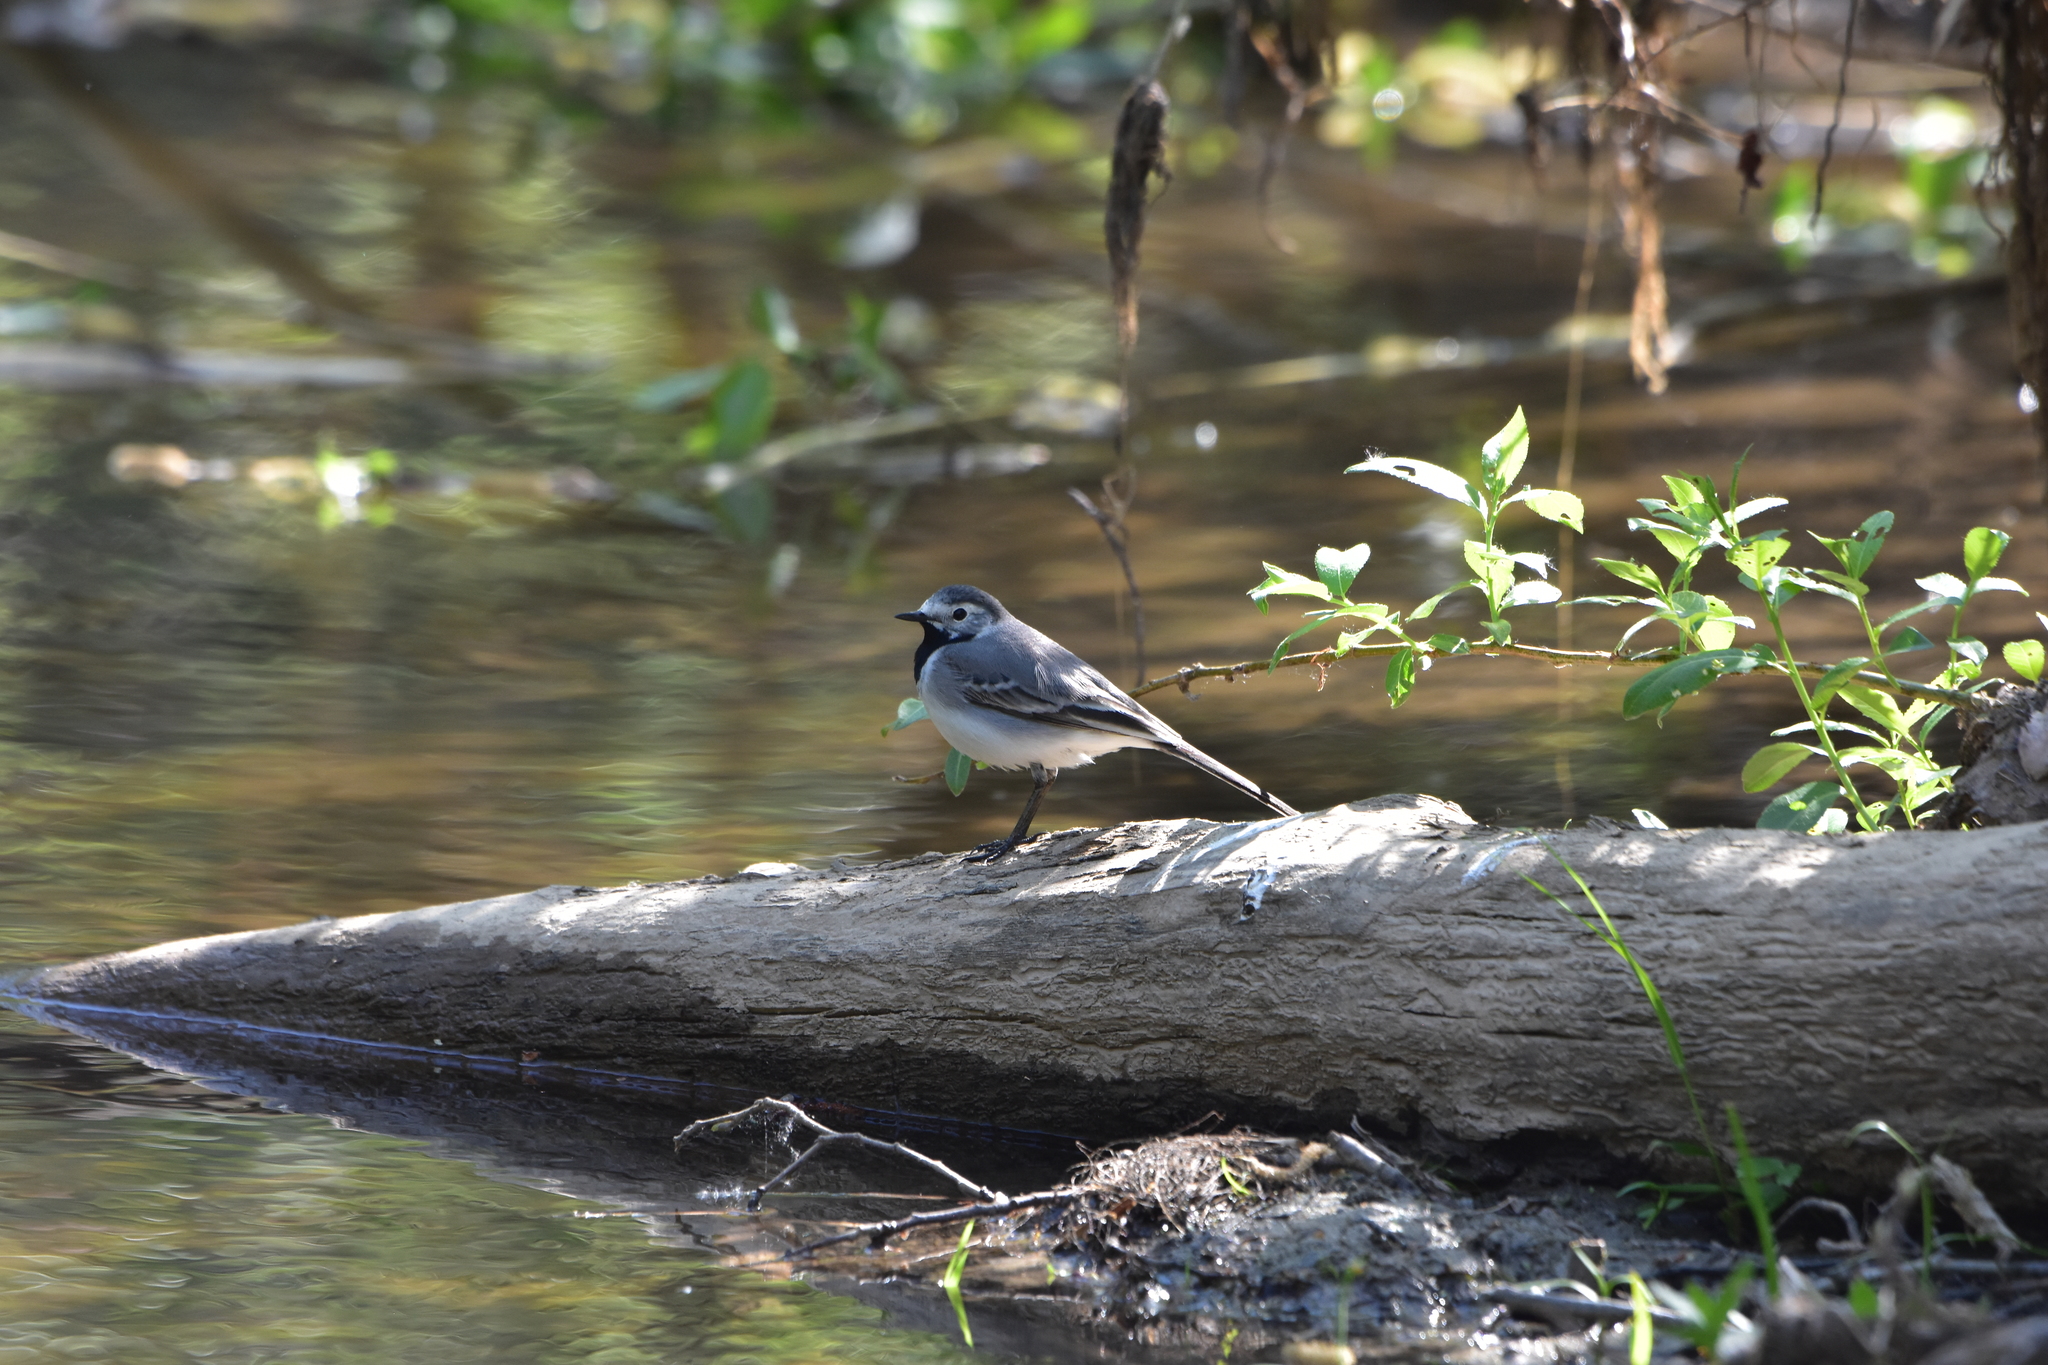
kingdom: Animalia
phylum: Chordata
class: Aves
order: Passeriformes
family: Motacillidae
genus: Motacilla
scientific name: Motacilla alba
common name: White wagtail
